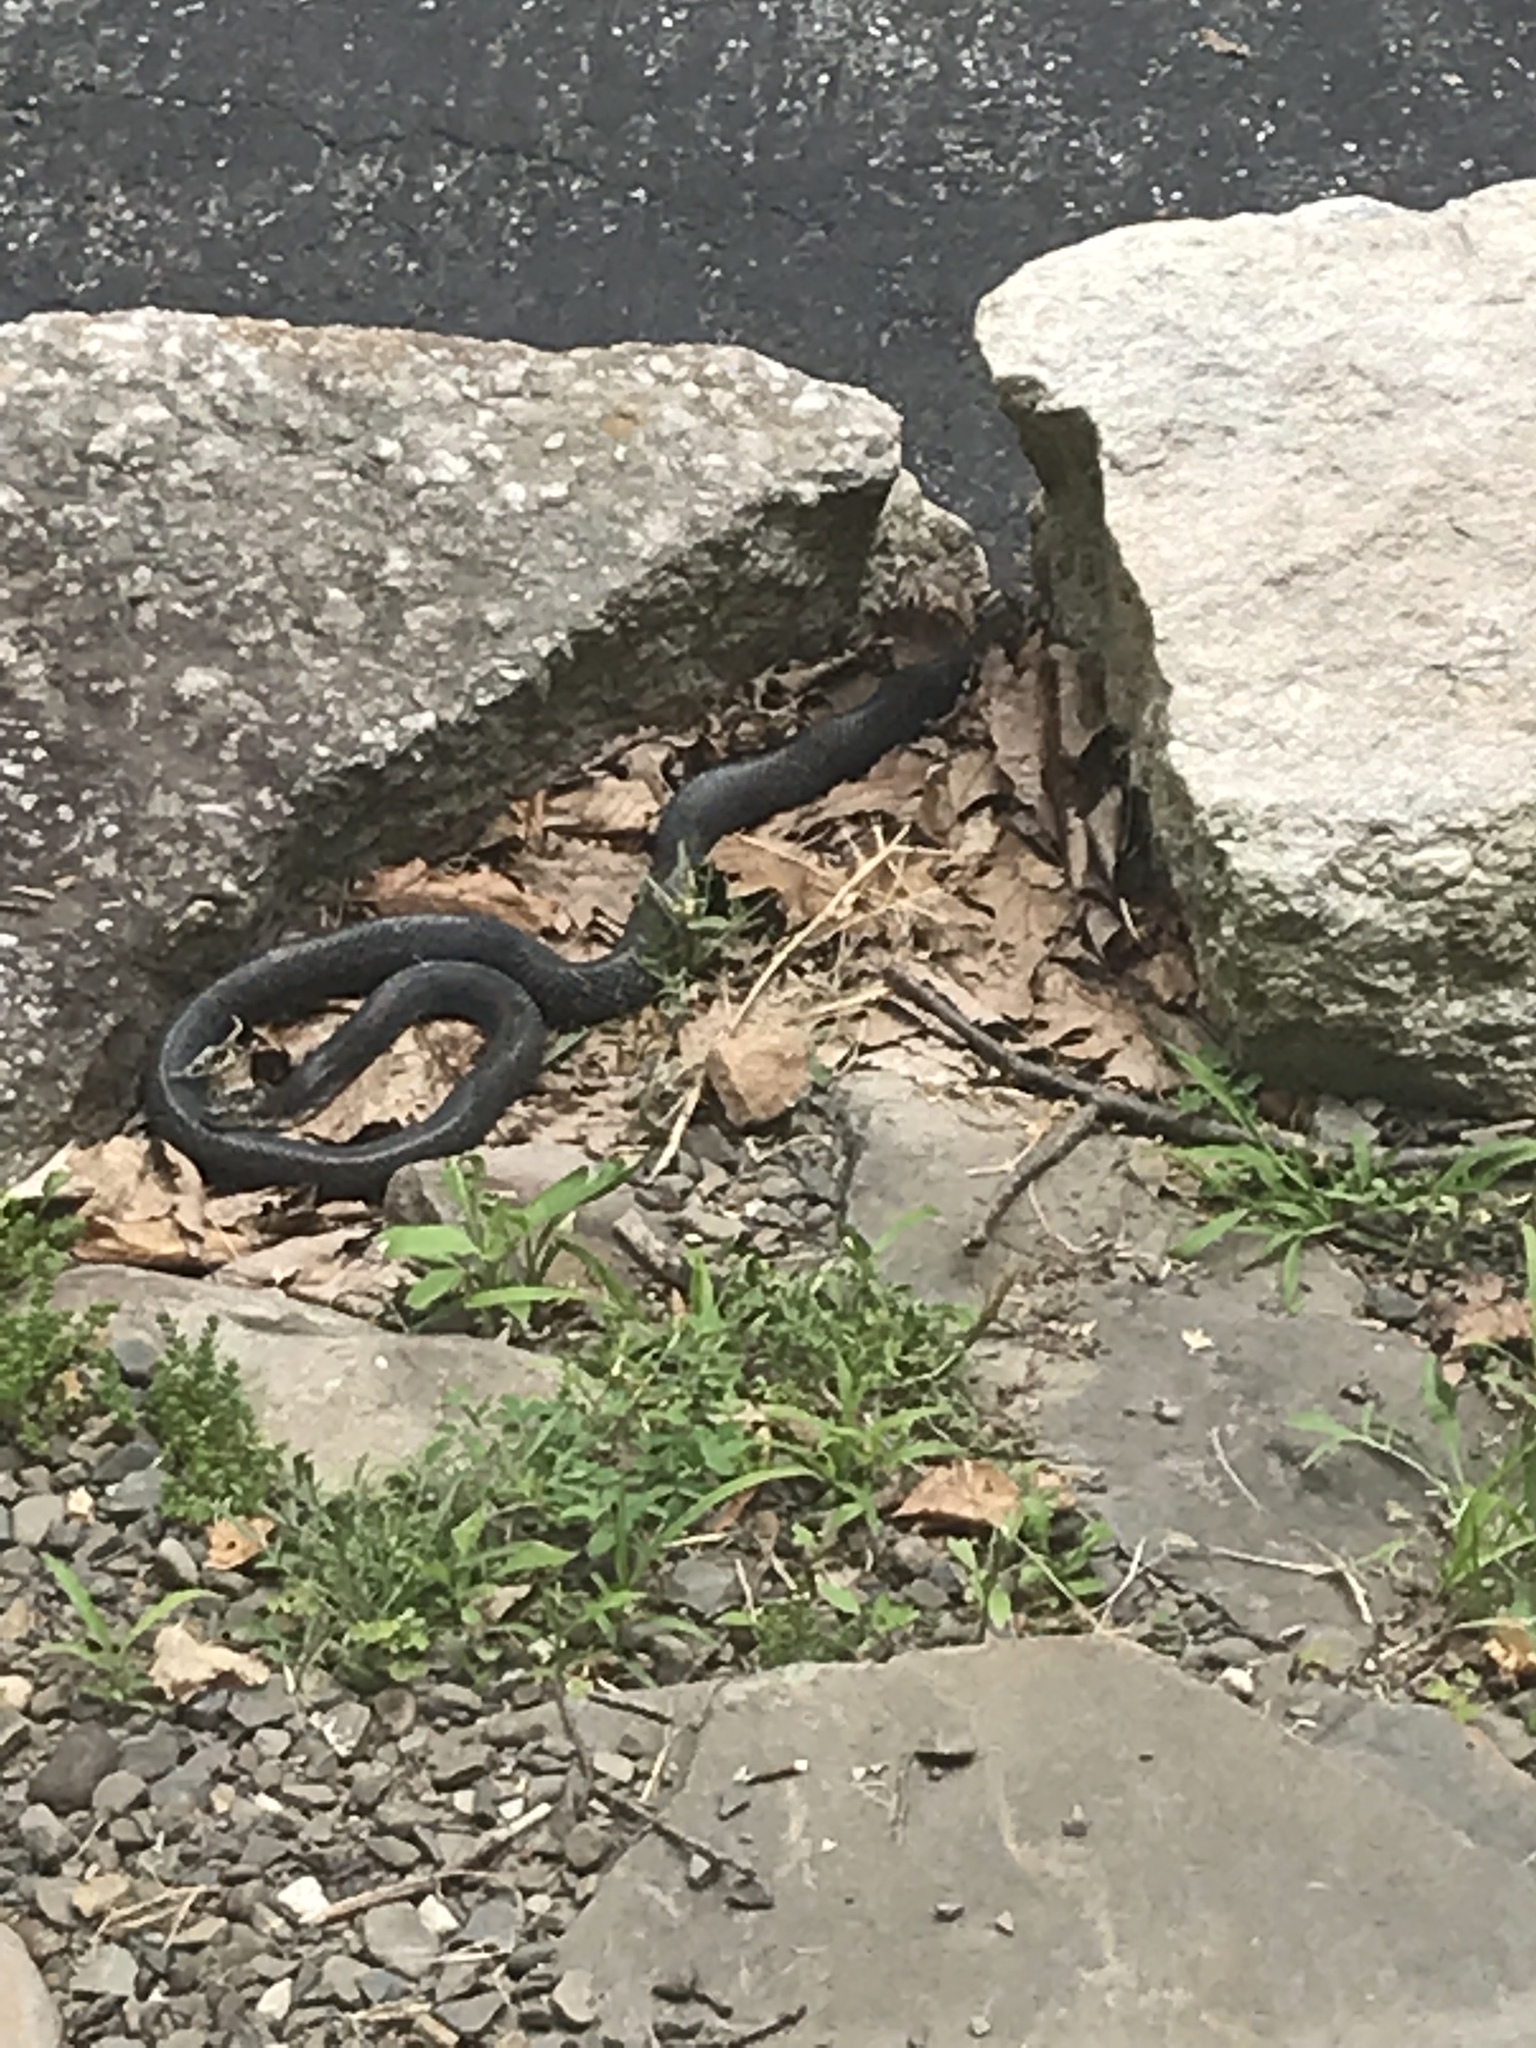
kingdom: Animalia
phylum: Chordata
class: Squamata
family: Colubridae
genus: Pantherophis
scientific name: Pantherophis alleghaniensis
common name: Eastern rat snake
